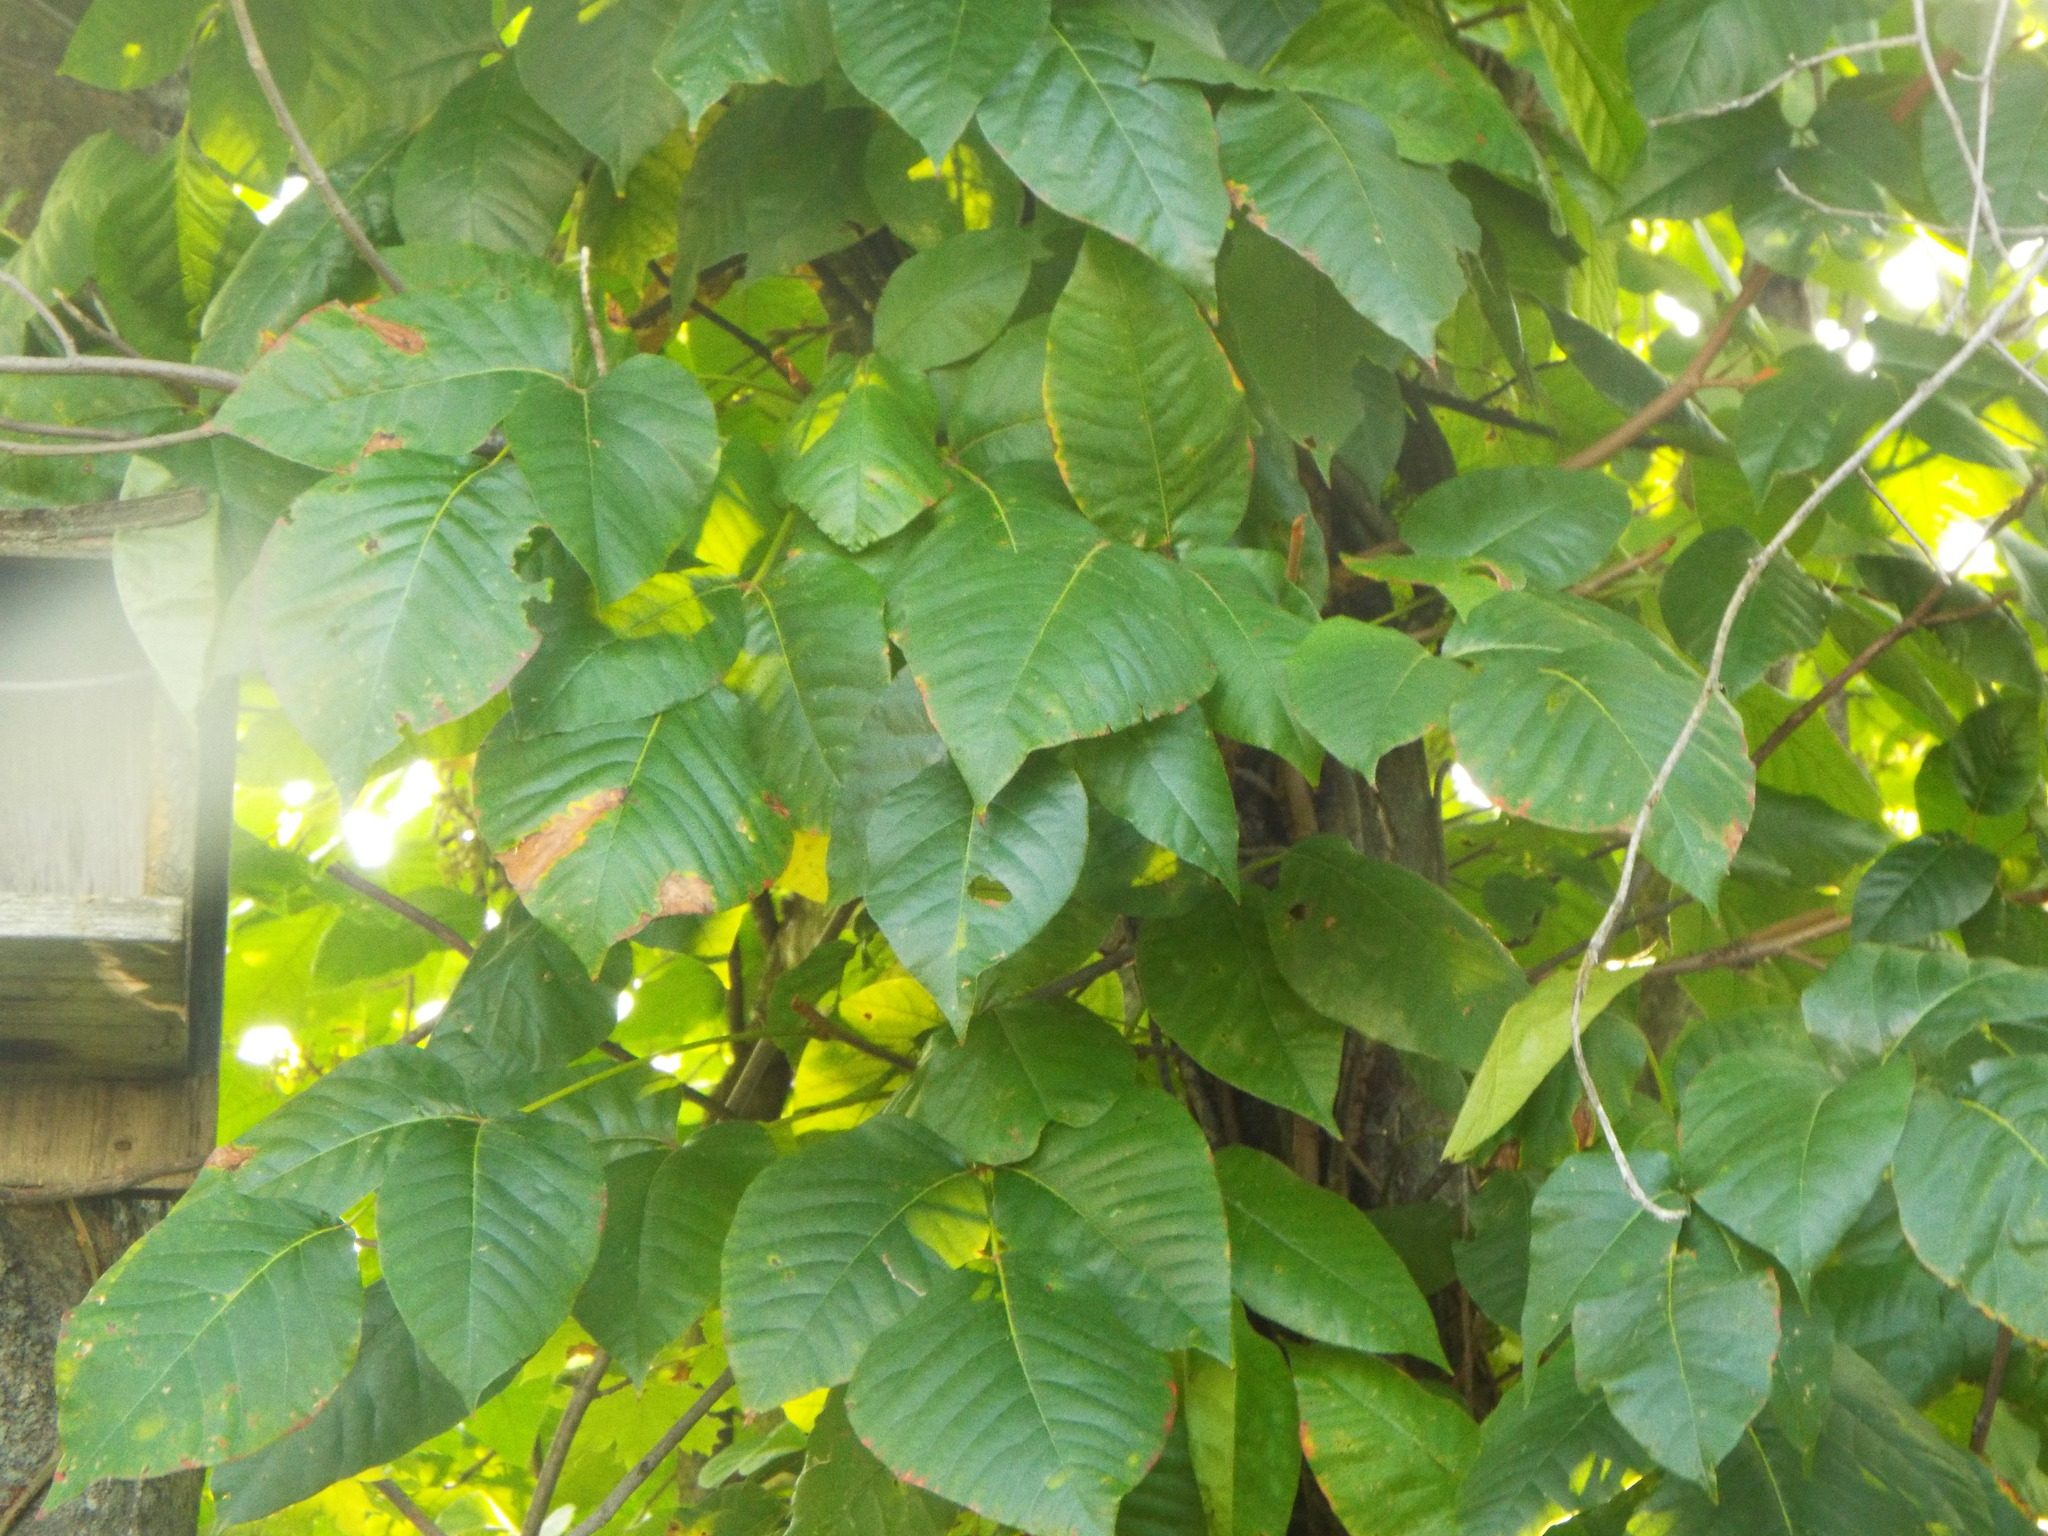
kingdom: Plantae
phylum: Tracheophyta
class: Magnoliopsida
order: Sapindales
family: Anacardiaceae
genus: Toxicodendron
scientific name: Toxicodendron radicans
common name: Poison ivy
